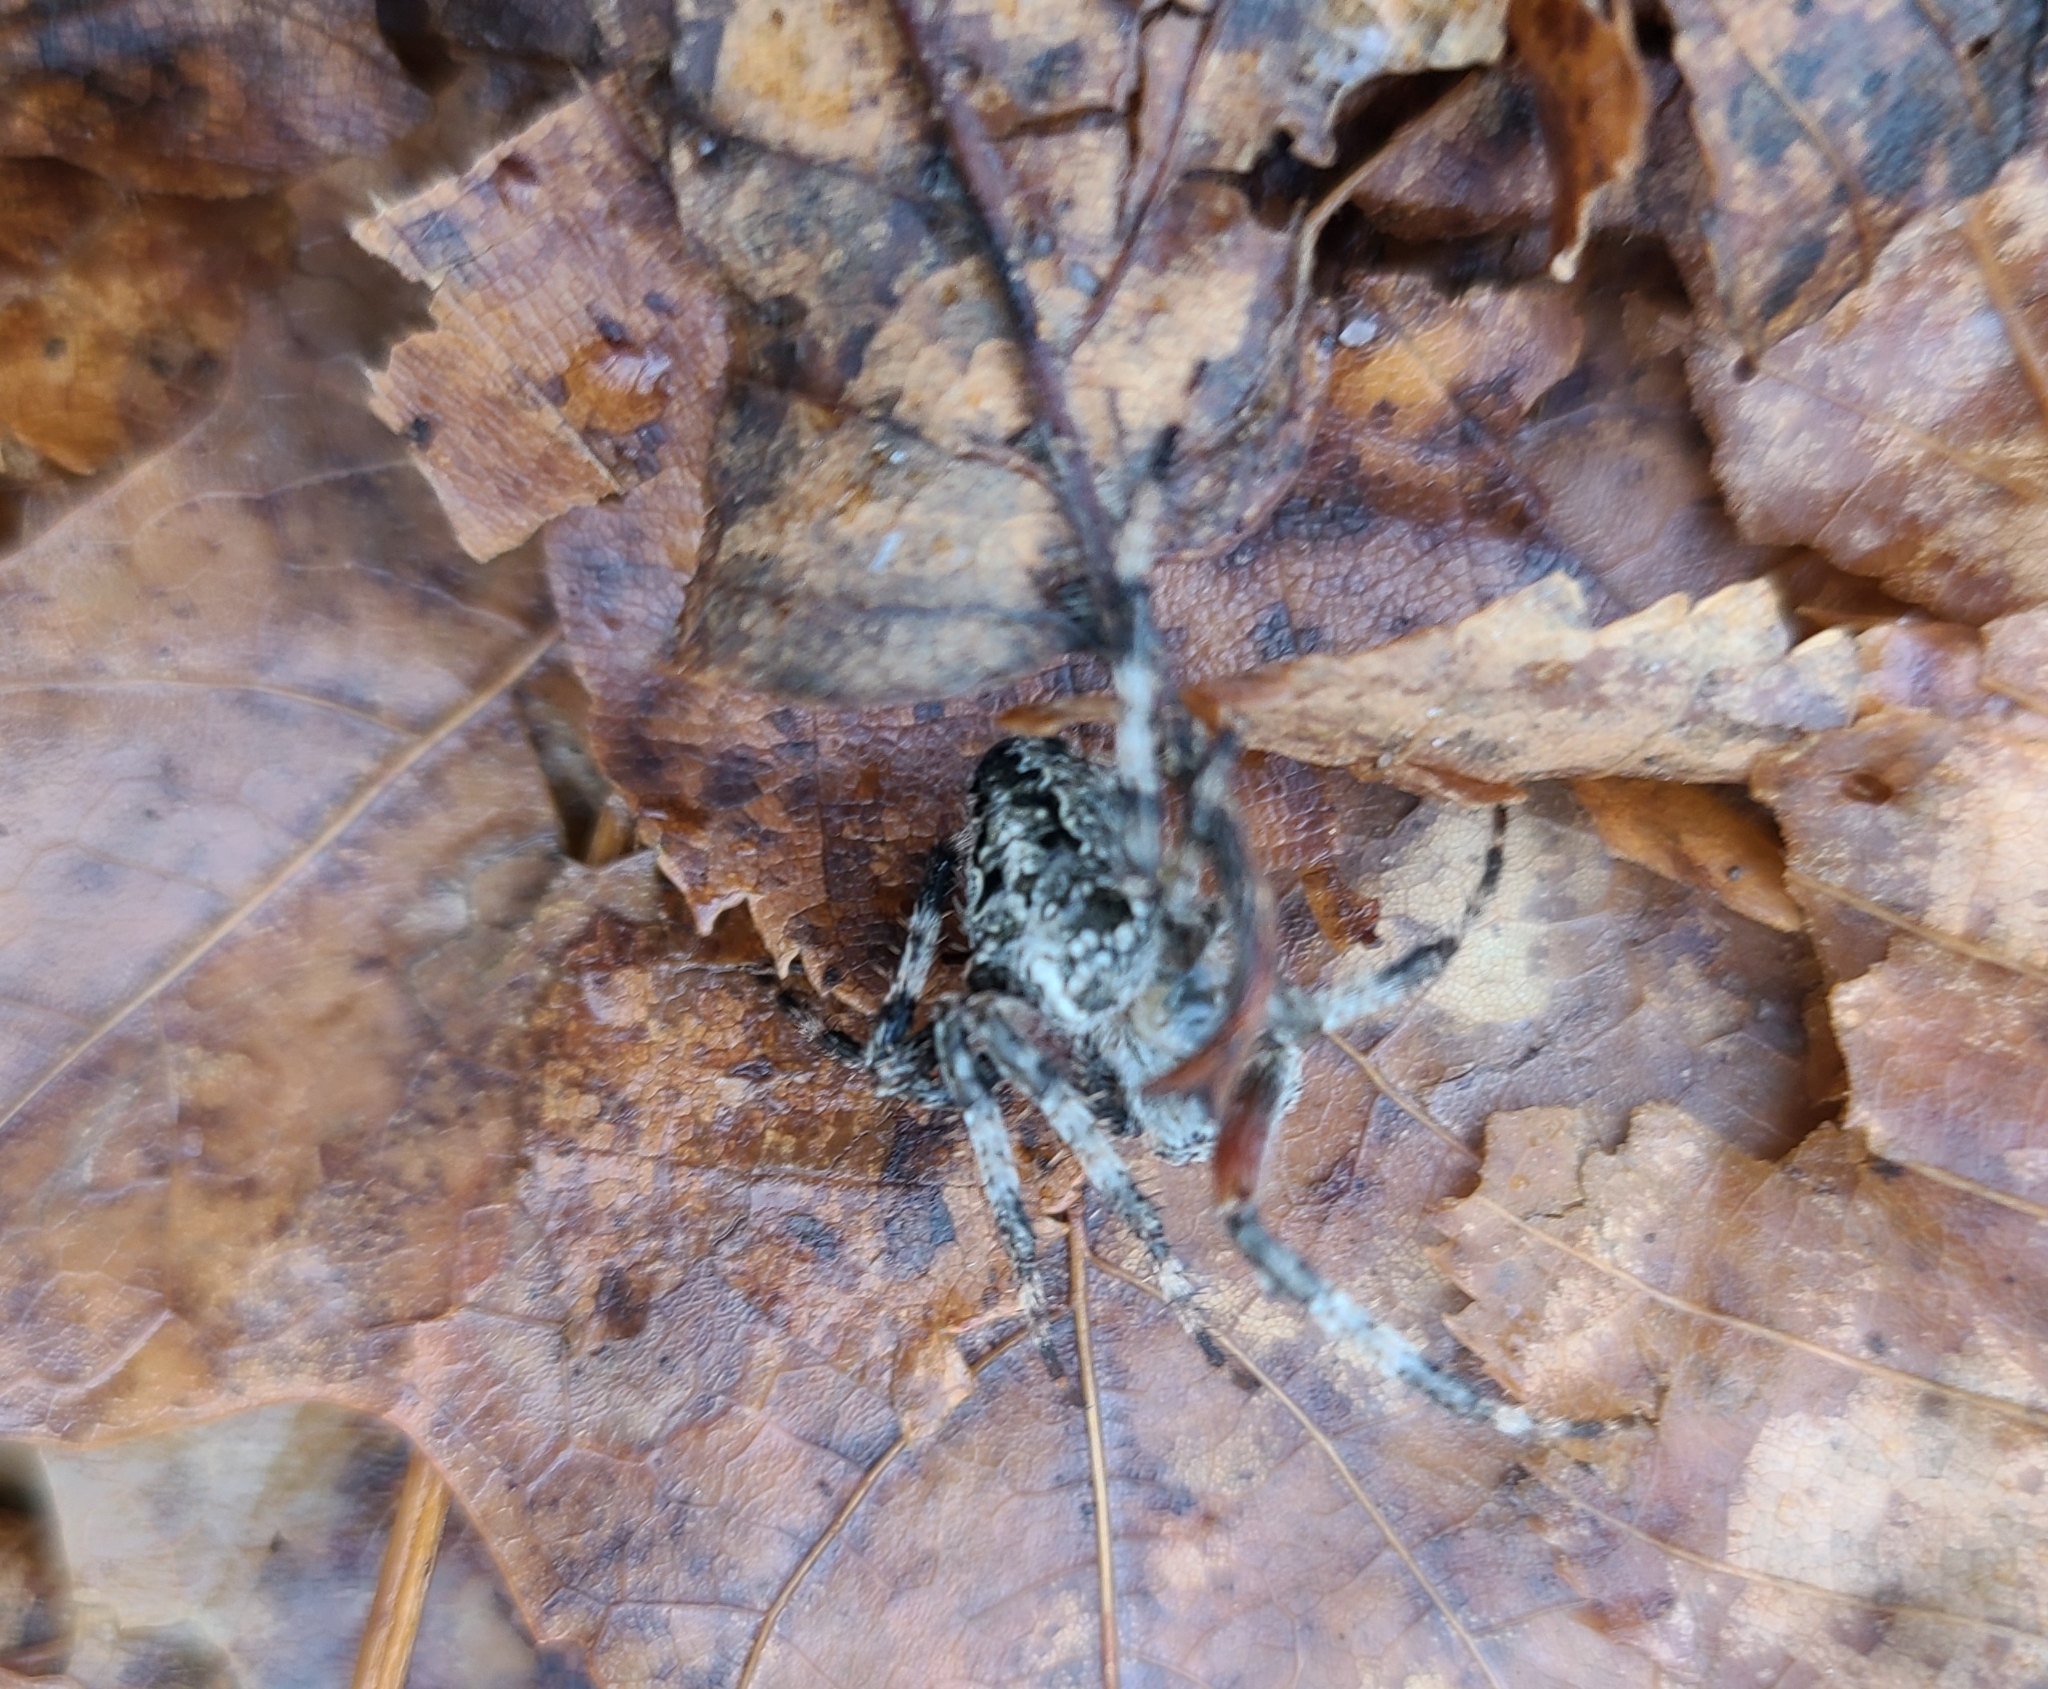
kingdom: Animalia
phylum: Arthropoda
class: Arachnida
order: Araneae
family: Araneidae
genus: Araneus
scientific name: Araneus nordmanni
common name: Nordmann's orbweaver
